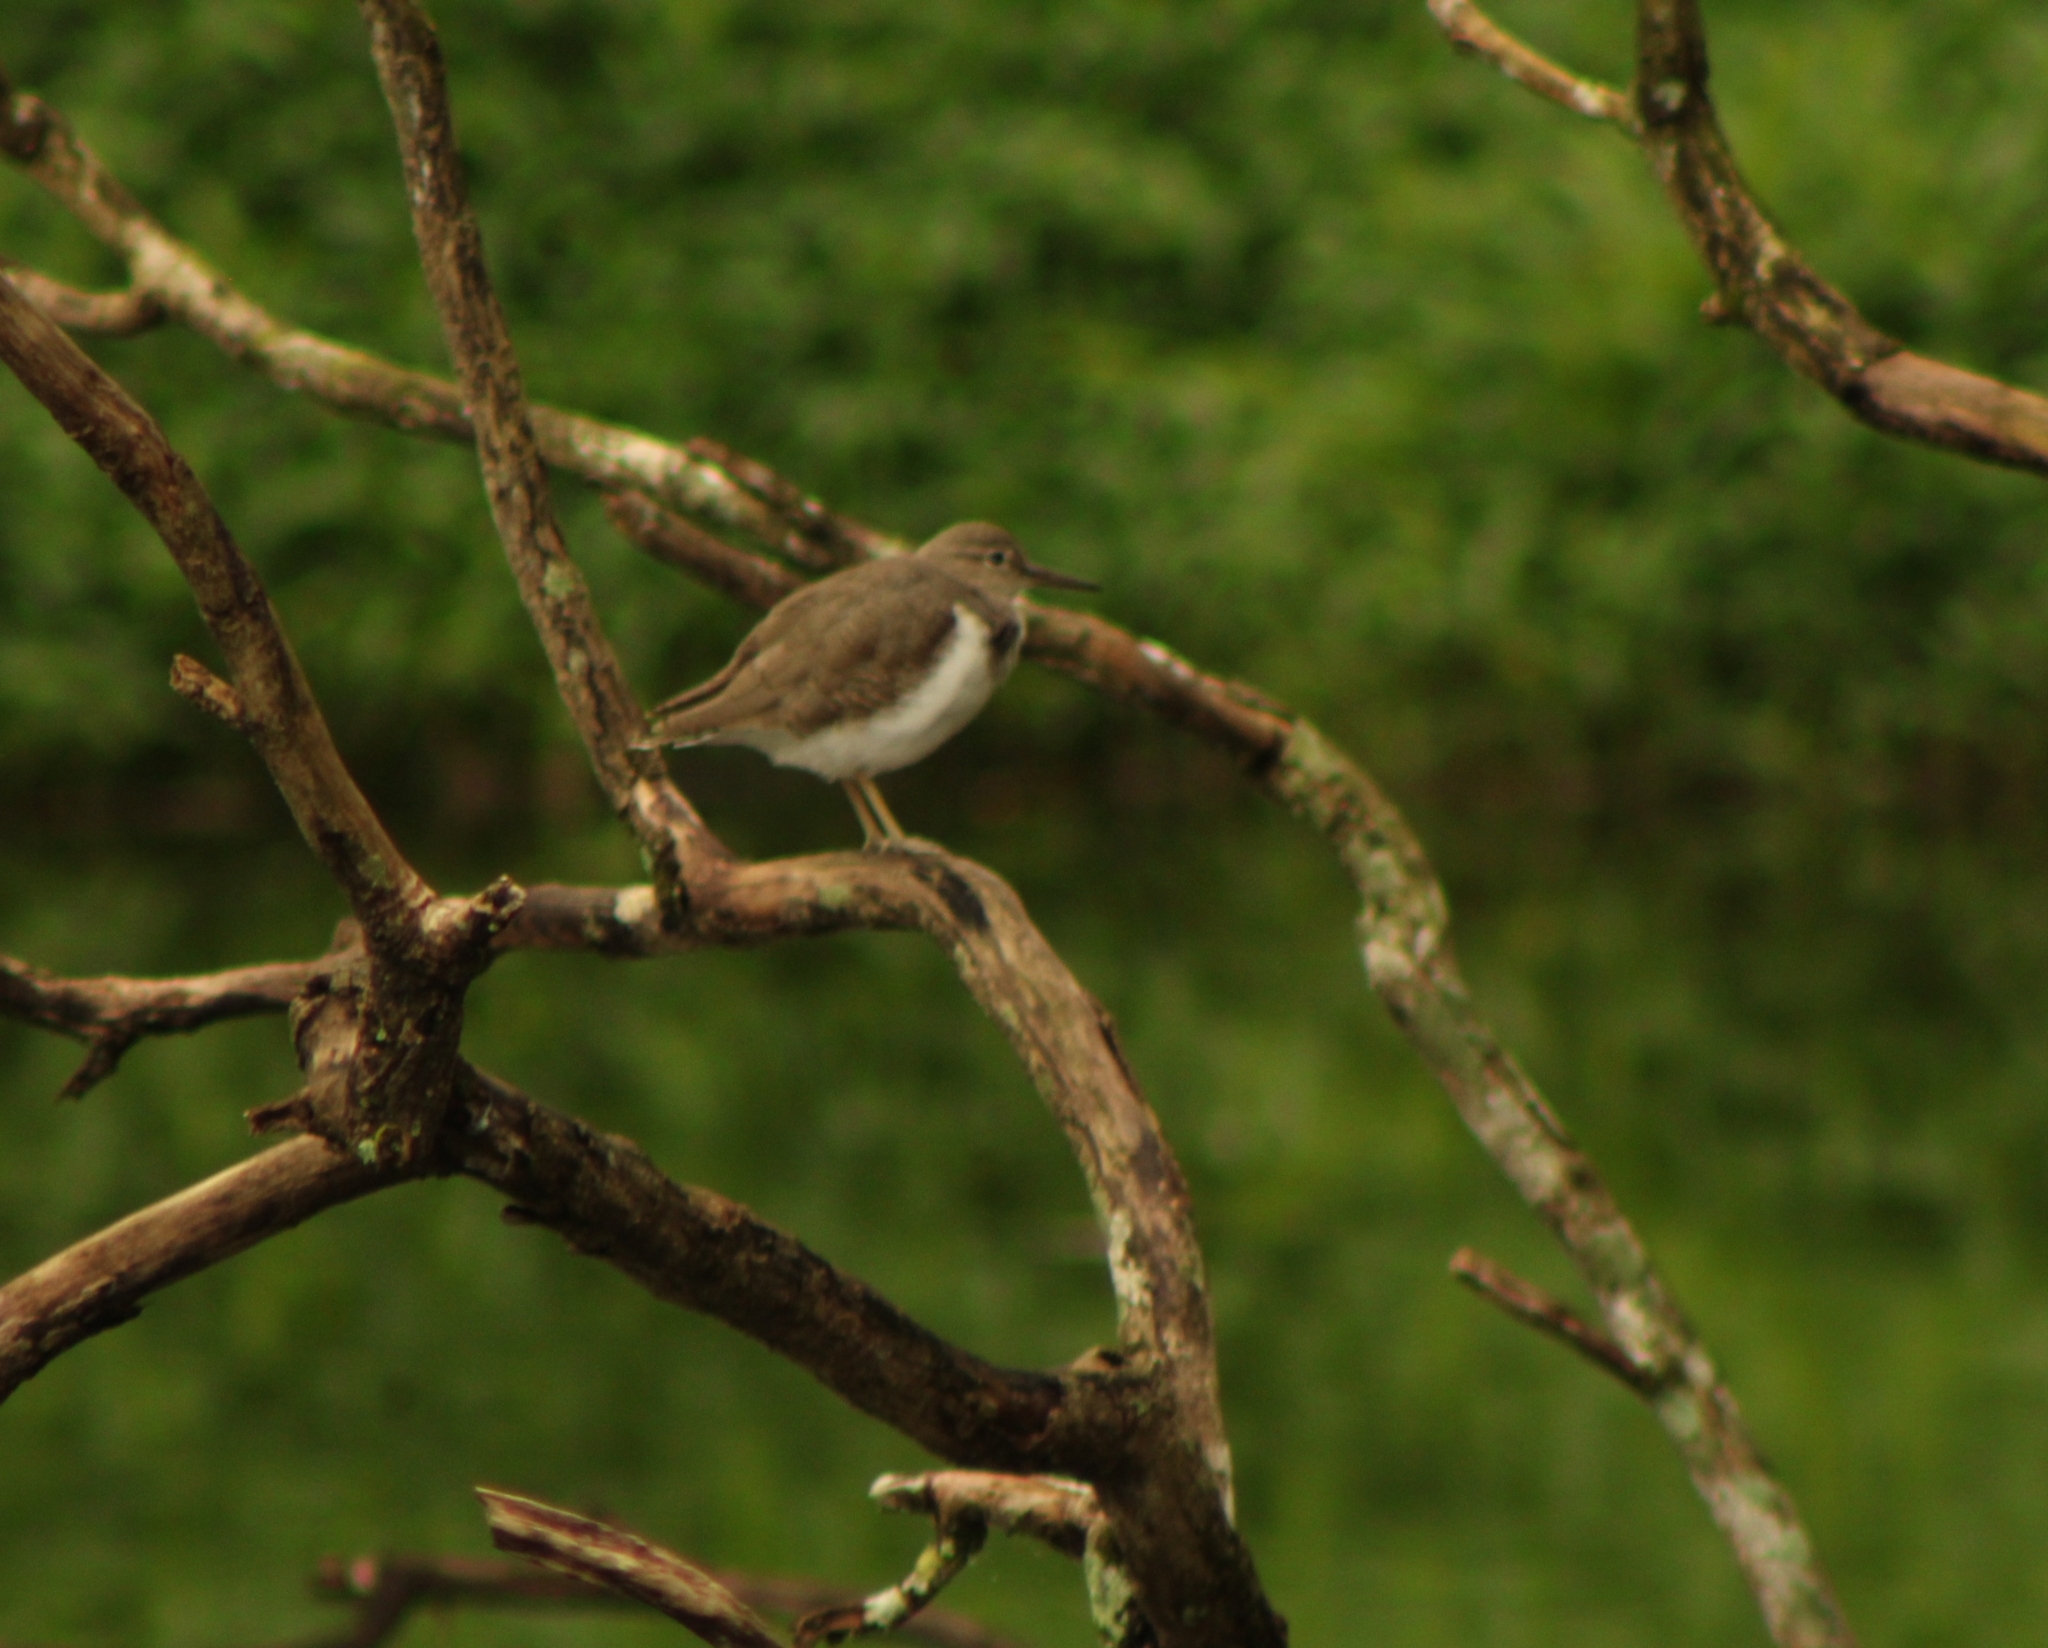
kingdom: Animalia
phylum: Chordata
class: Aves
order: Charadriiformes
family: Scolopacidae
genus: Actitis
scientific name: Actitis macularius
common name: Spotted sandpiper
